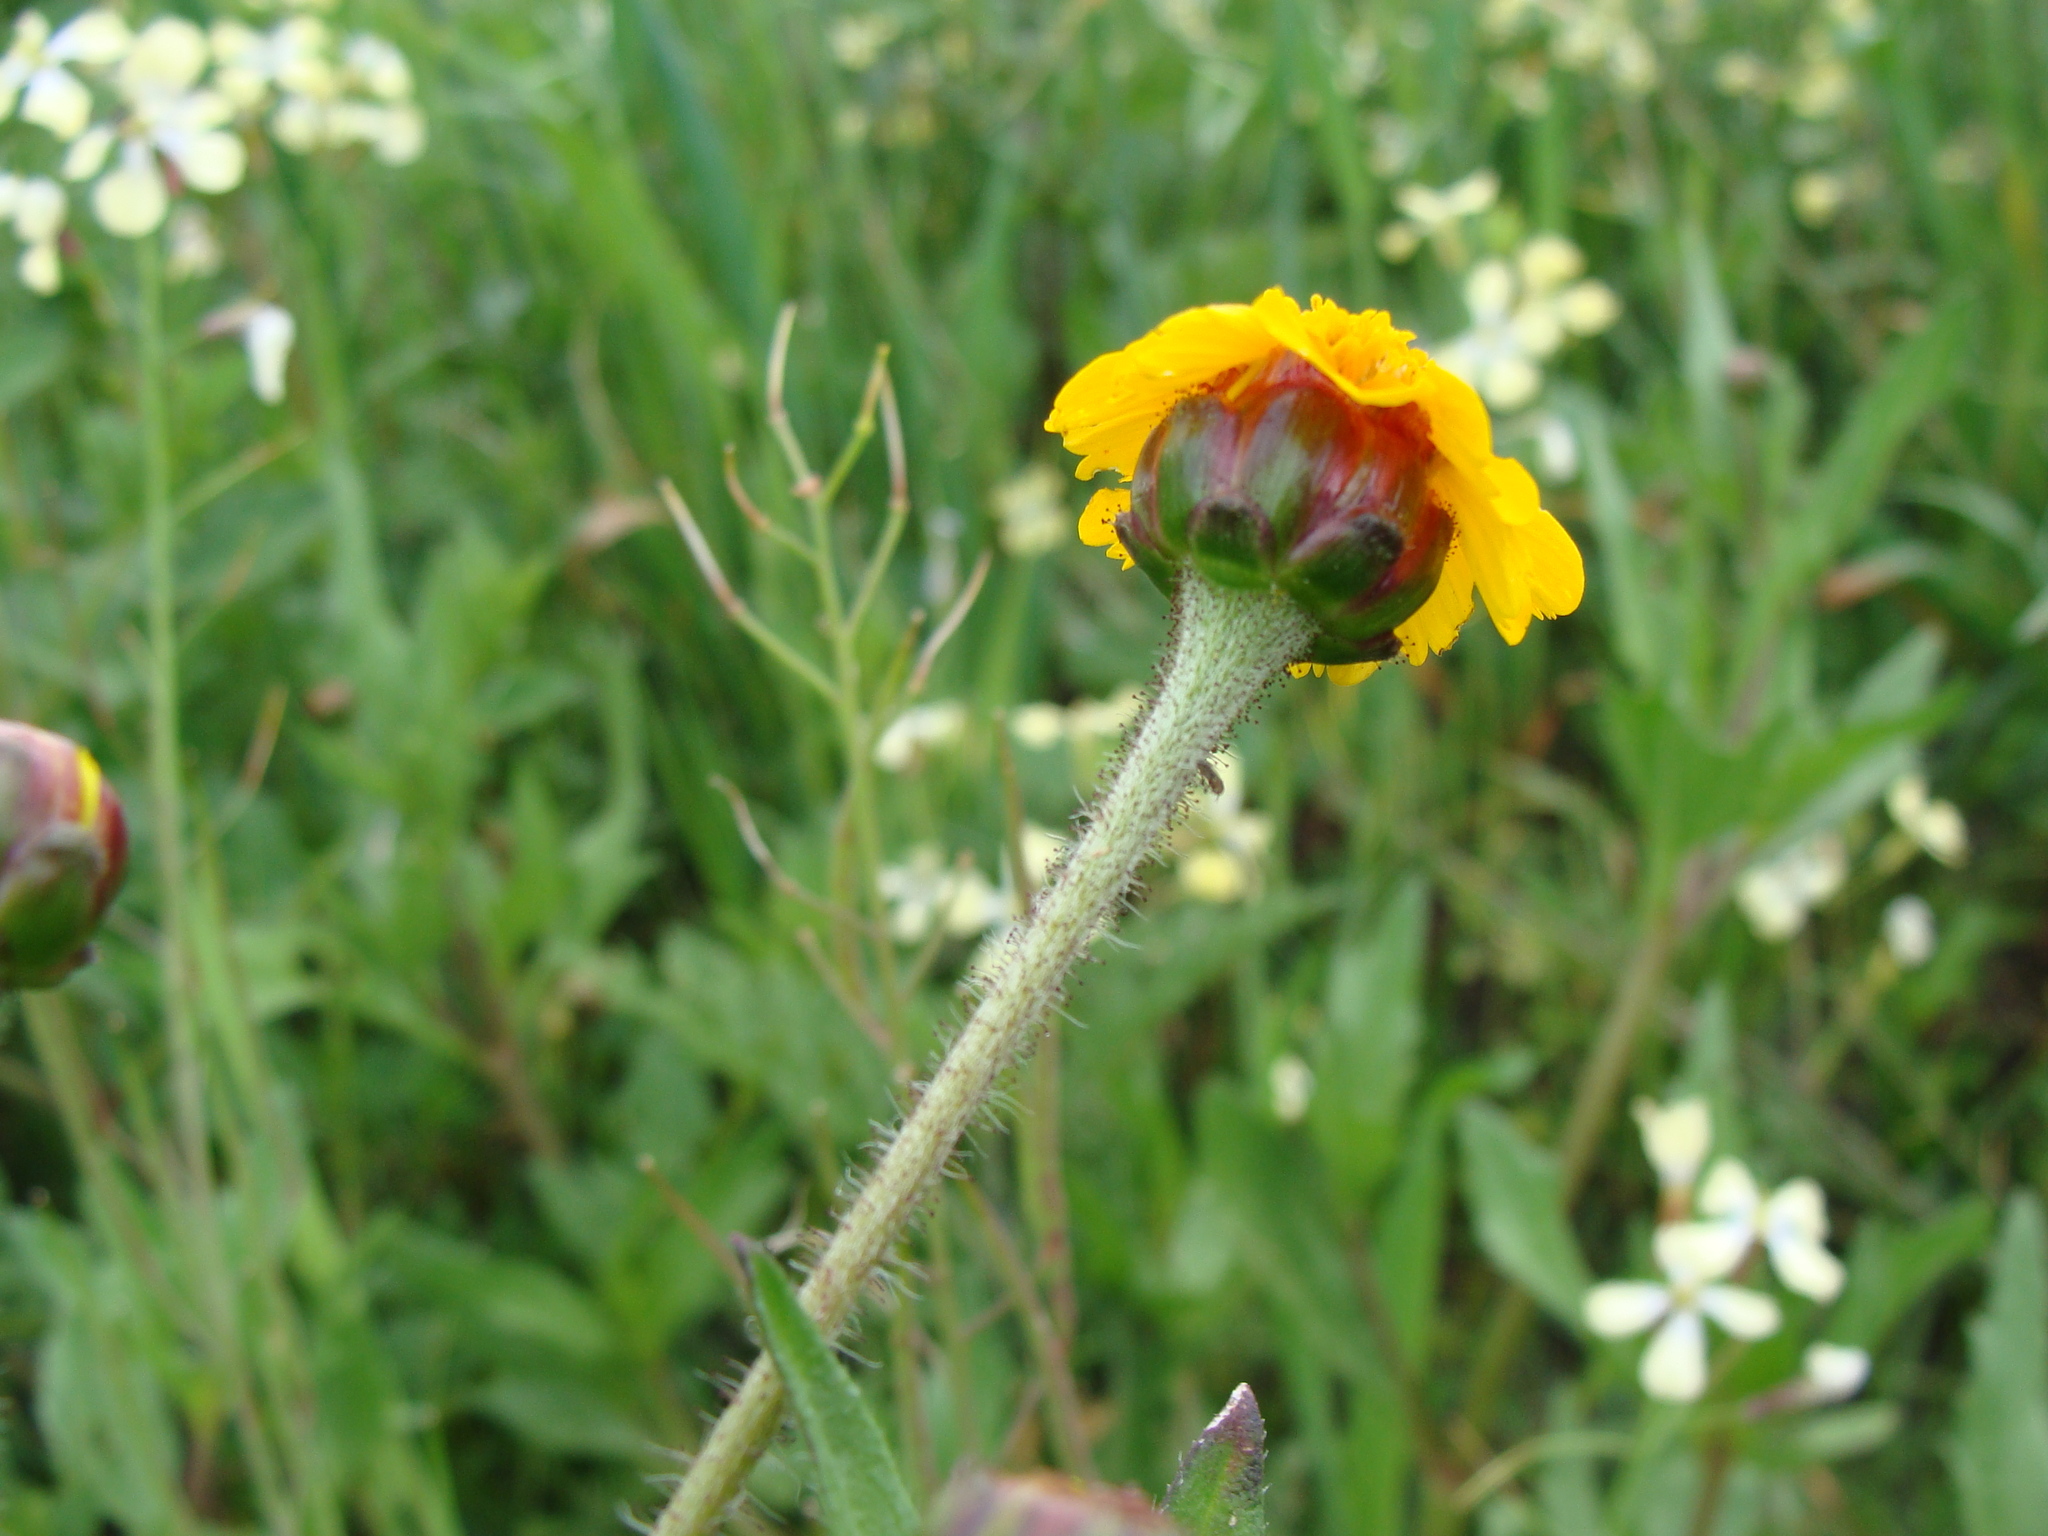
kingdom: Plantae
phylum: Tracheophyta
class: Magnoliopsida
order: Asterales
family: Asteraceae
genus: Tridax
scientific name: Tridax trilobata
